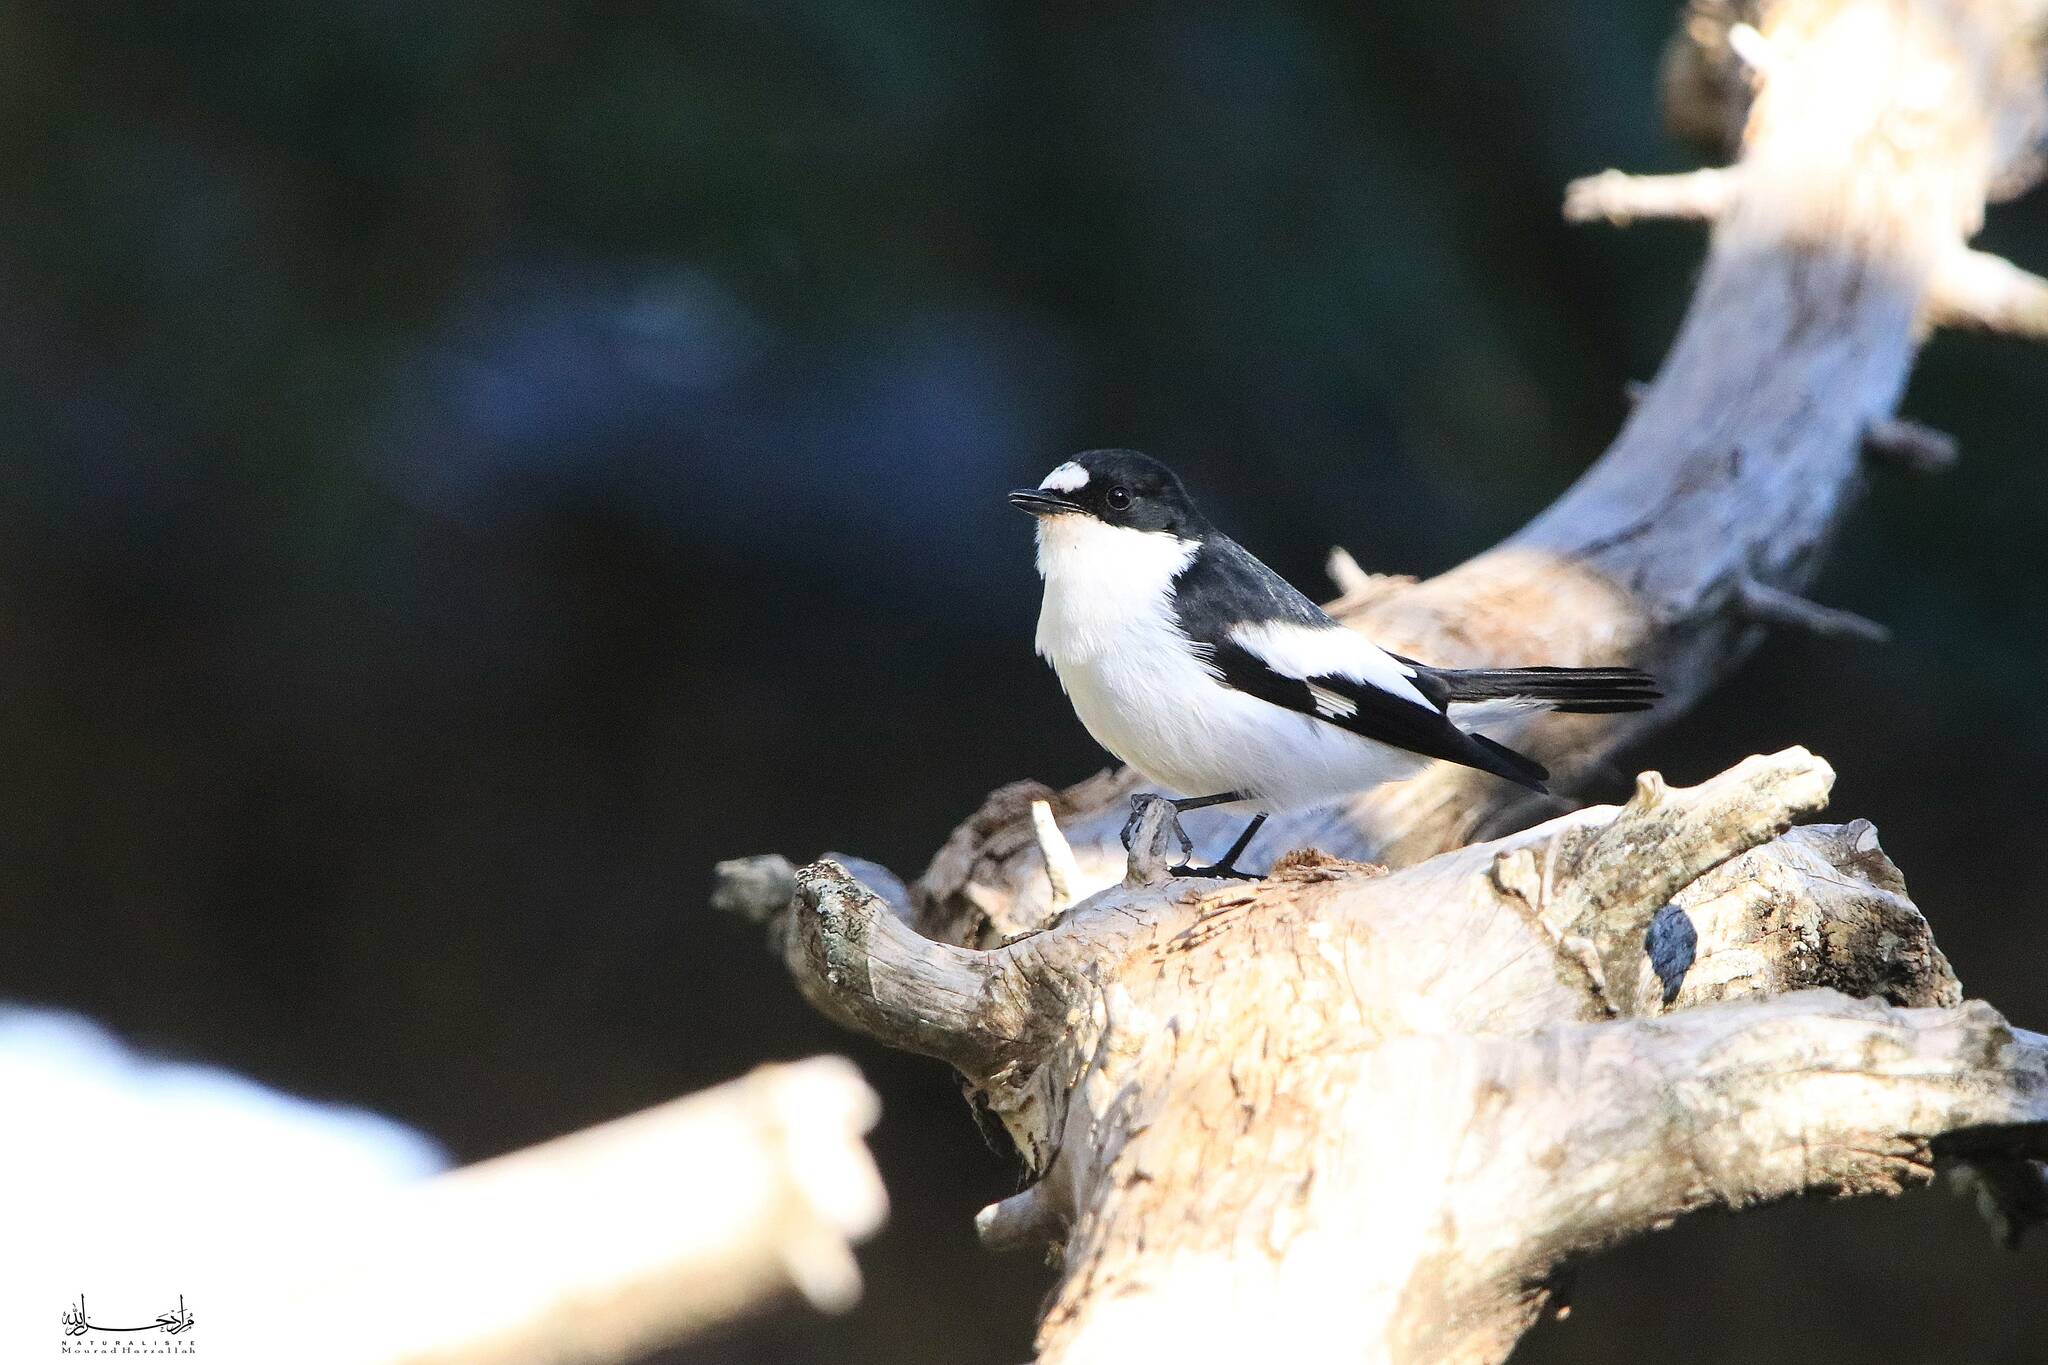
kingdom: Animalia
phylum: Chordata
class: Aves
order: Passeriformes
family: Muscicapidae
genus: Ficedula
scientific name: Ficedula speculigera
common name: Atlas pied flycatcher
